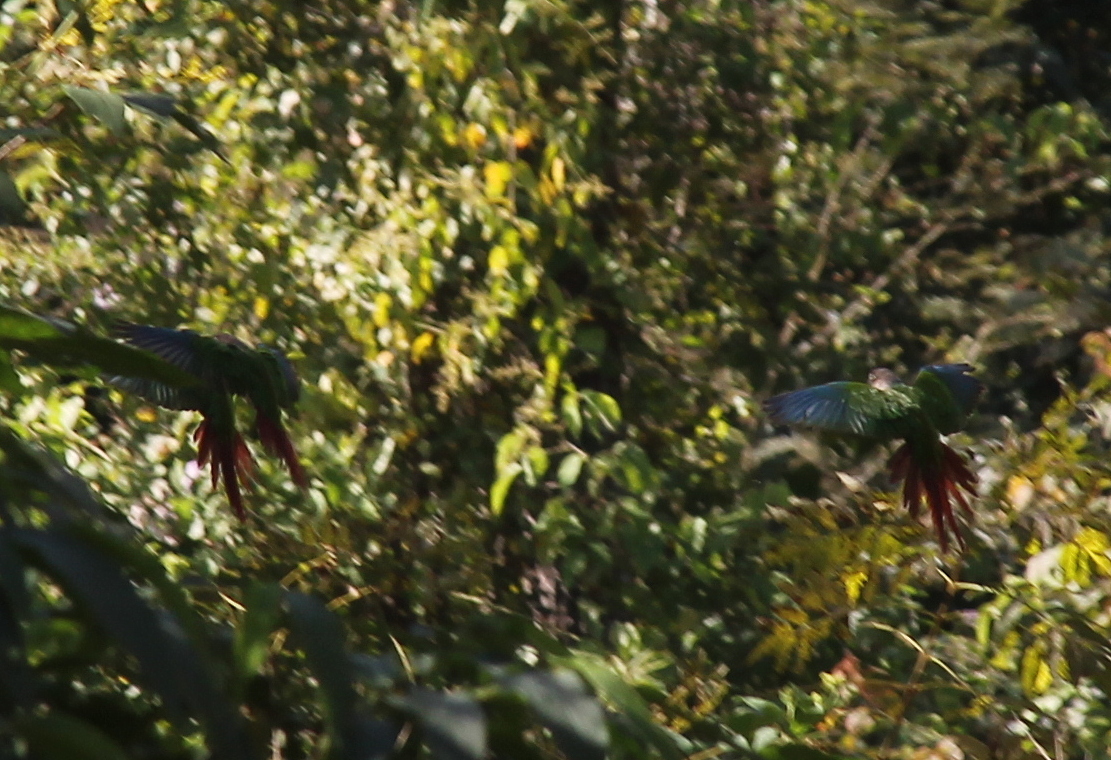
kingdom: Animalia
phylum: Chordata
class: Aves
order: Psittaciformes
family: Psittacidae
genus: Pyrrhura
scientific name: Pyrrhura molinae
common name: Green-cheeked parakeet
